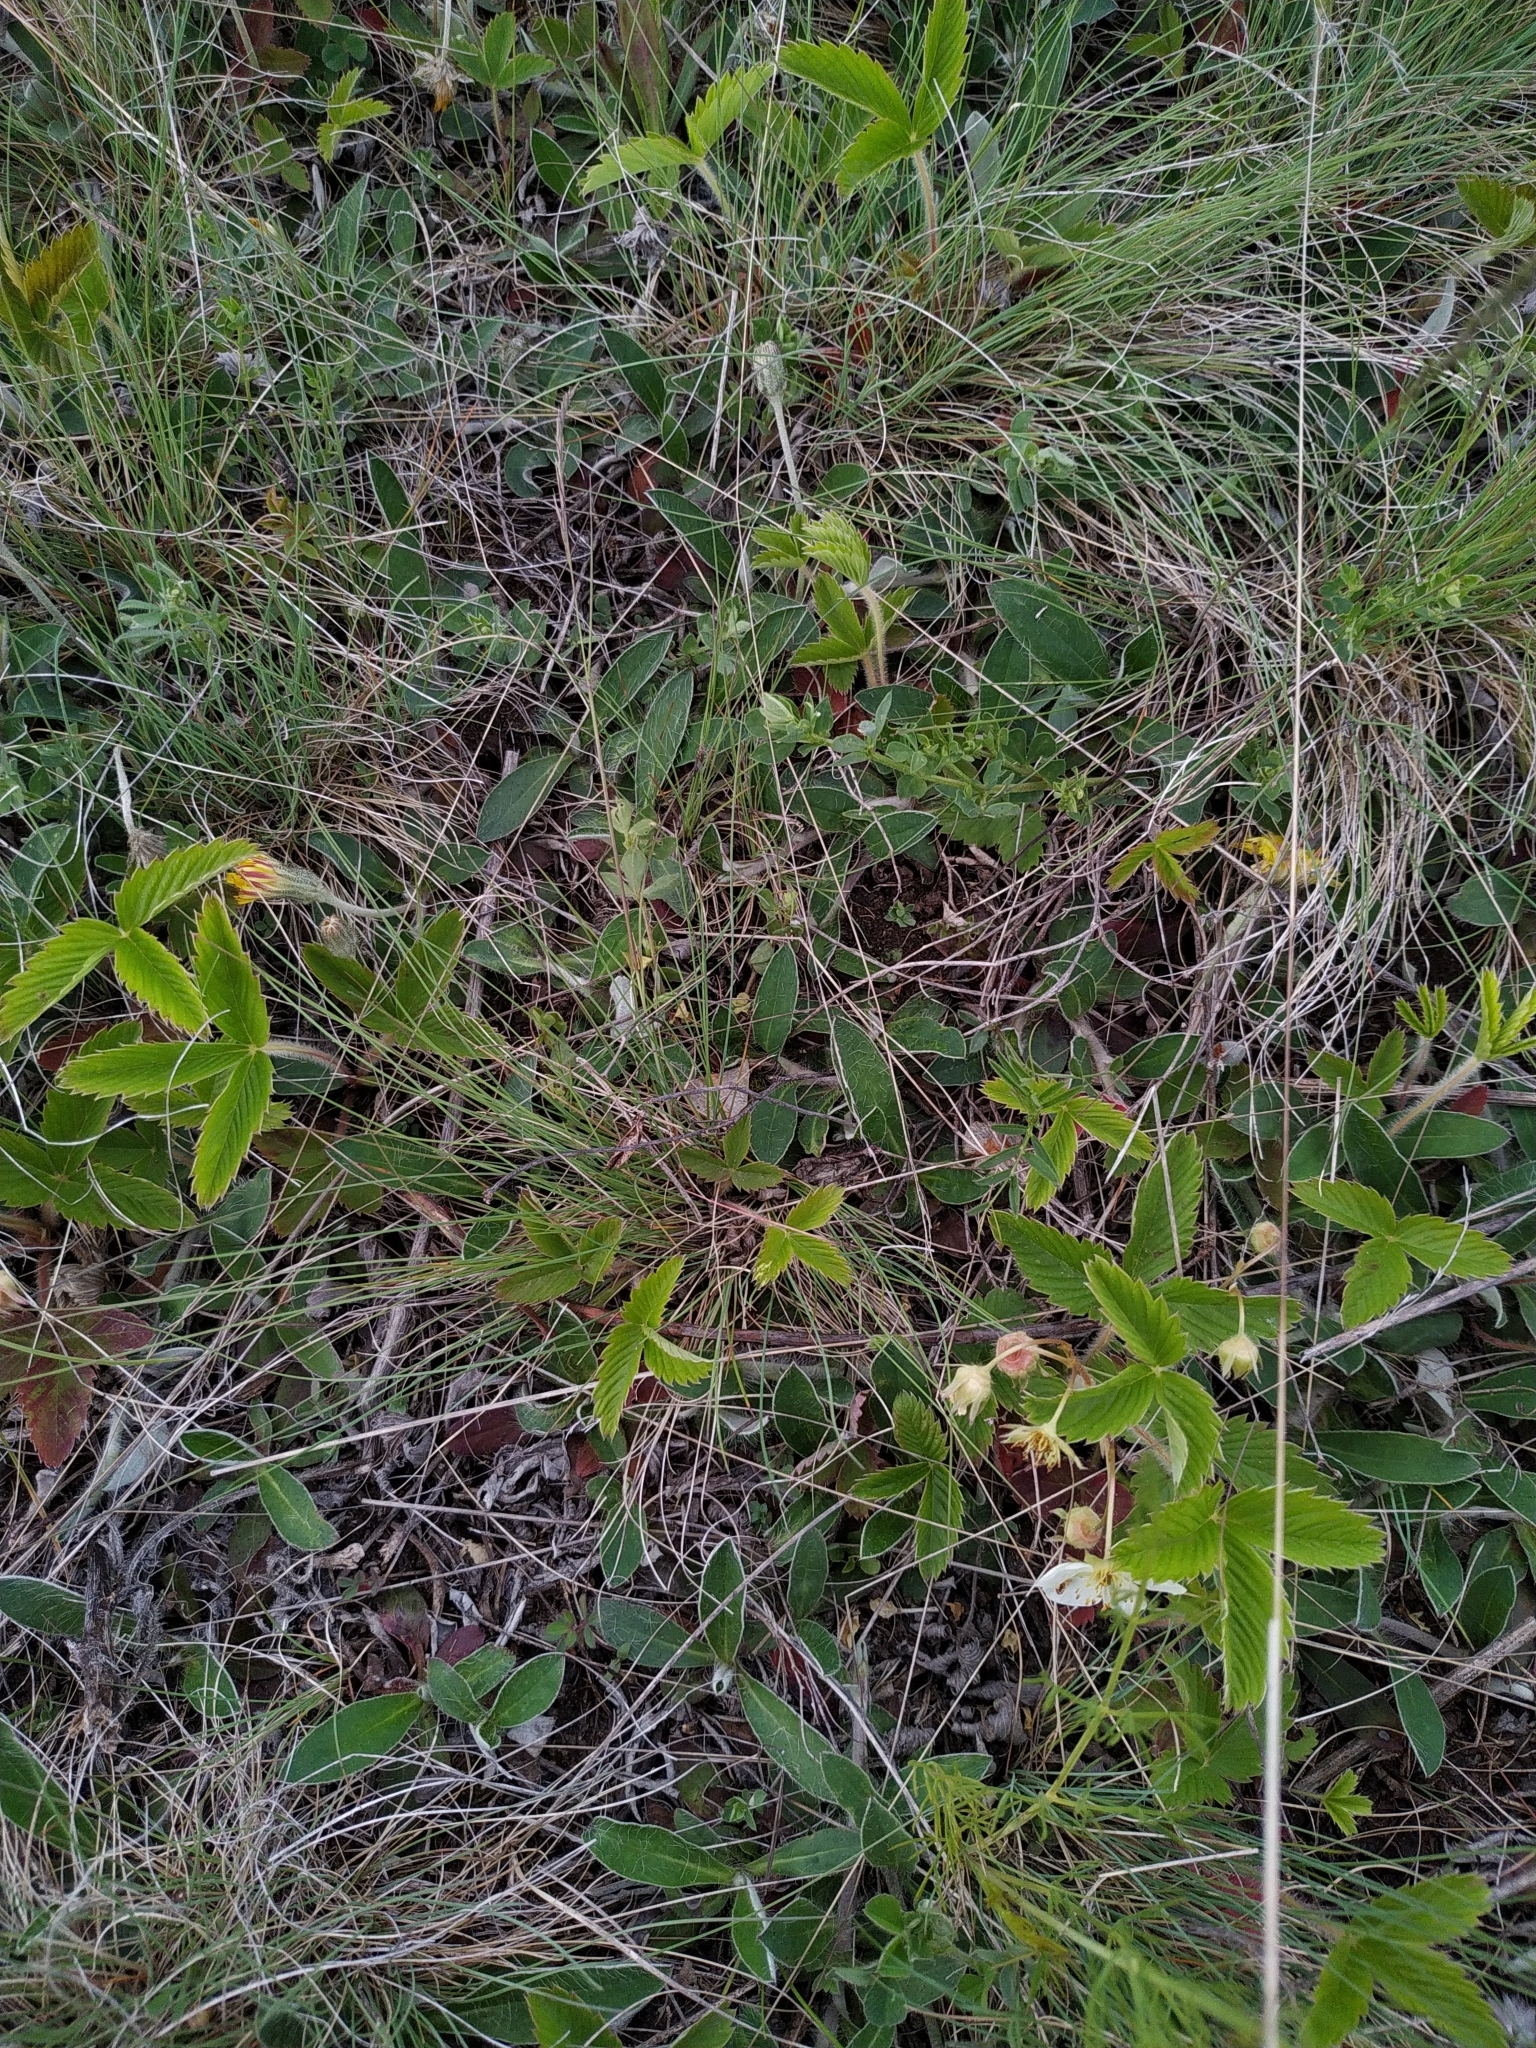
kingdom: Plantae
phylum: Tracheophyta
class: Magnoliopsida
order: Rosales
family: Rosaceae
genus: Fragaria
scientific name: Fragaria viridis
